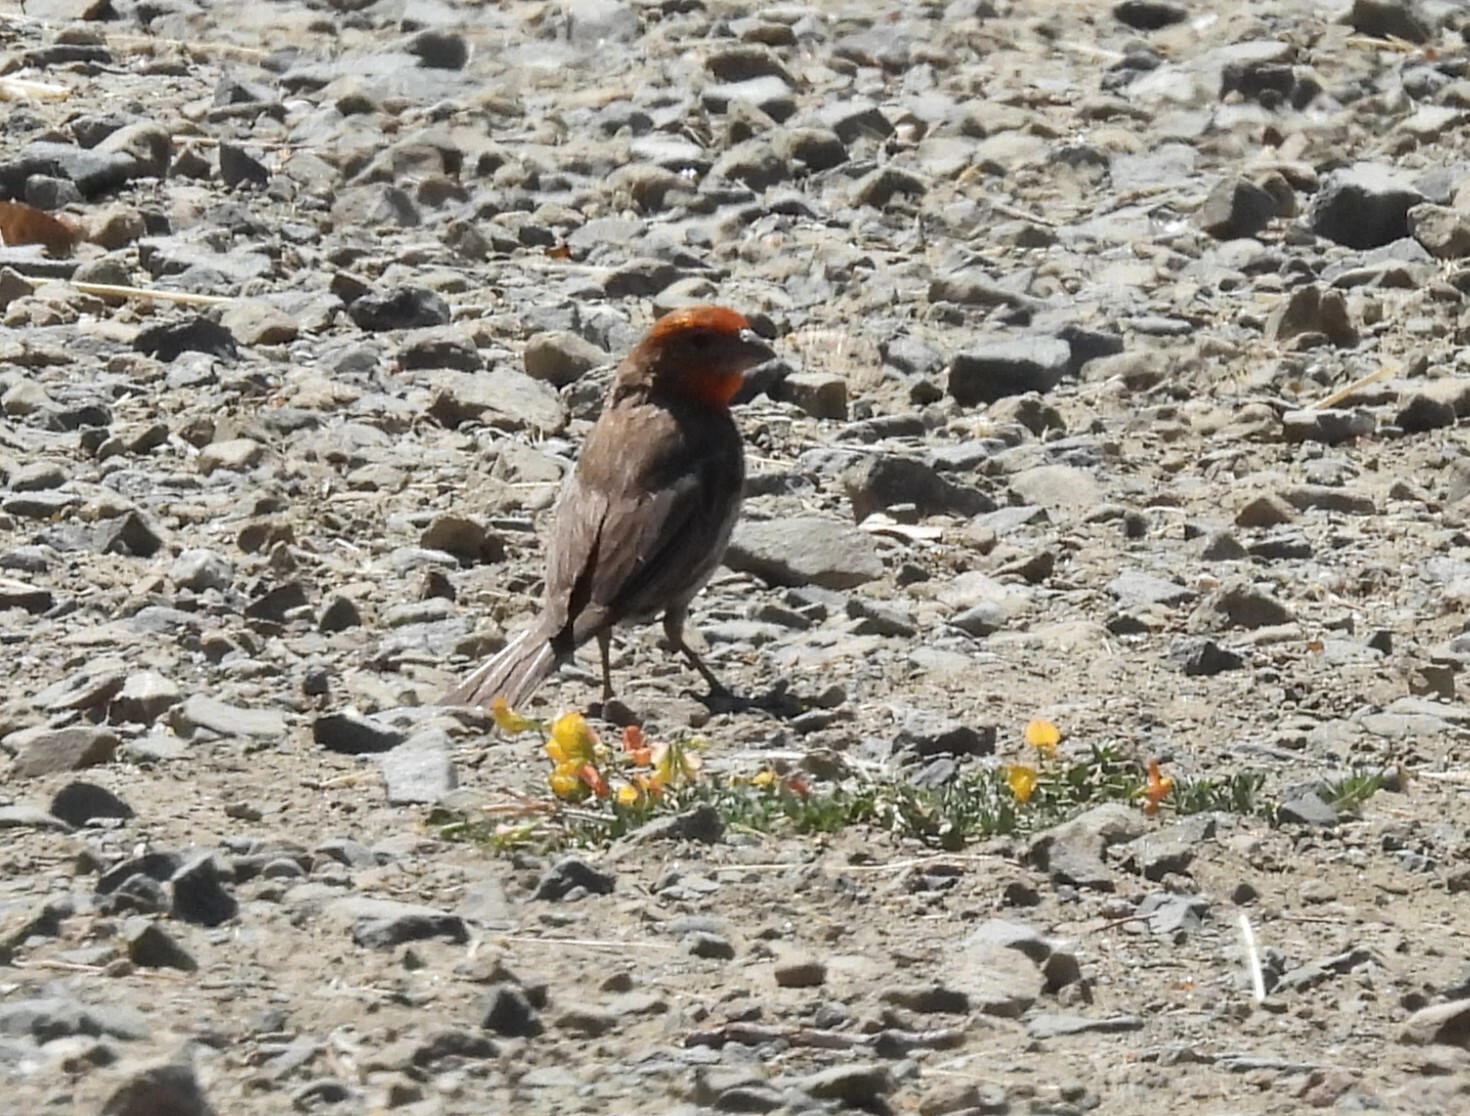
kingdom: Animalia
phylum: Chordata
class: Aves
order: Passeriformes
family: Fringillidae
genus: Haemorhous
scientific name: Haemorhous mexicanus
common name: House finch
